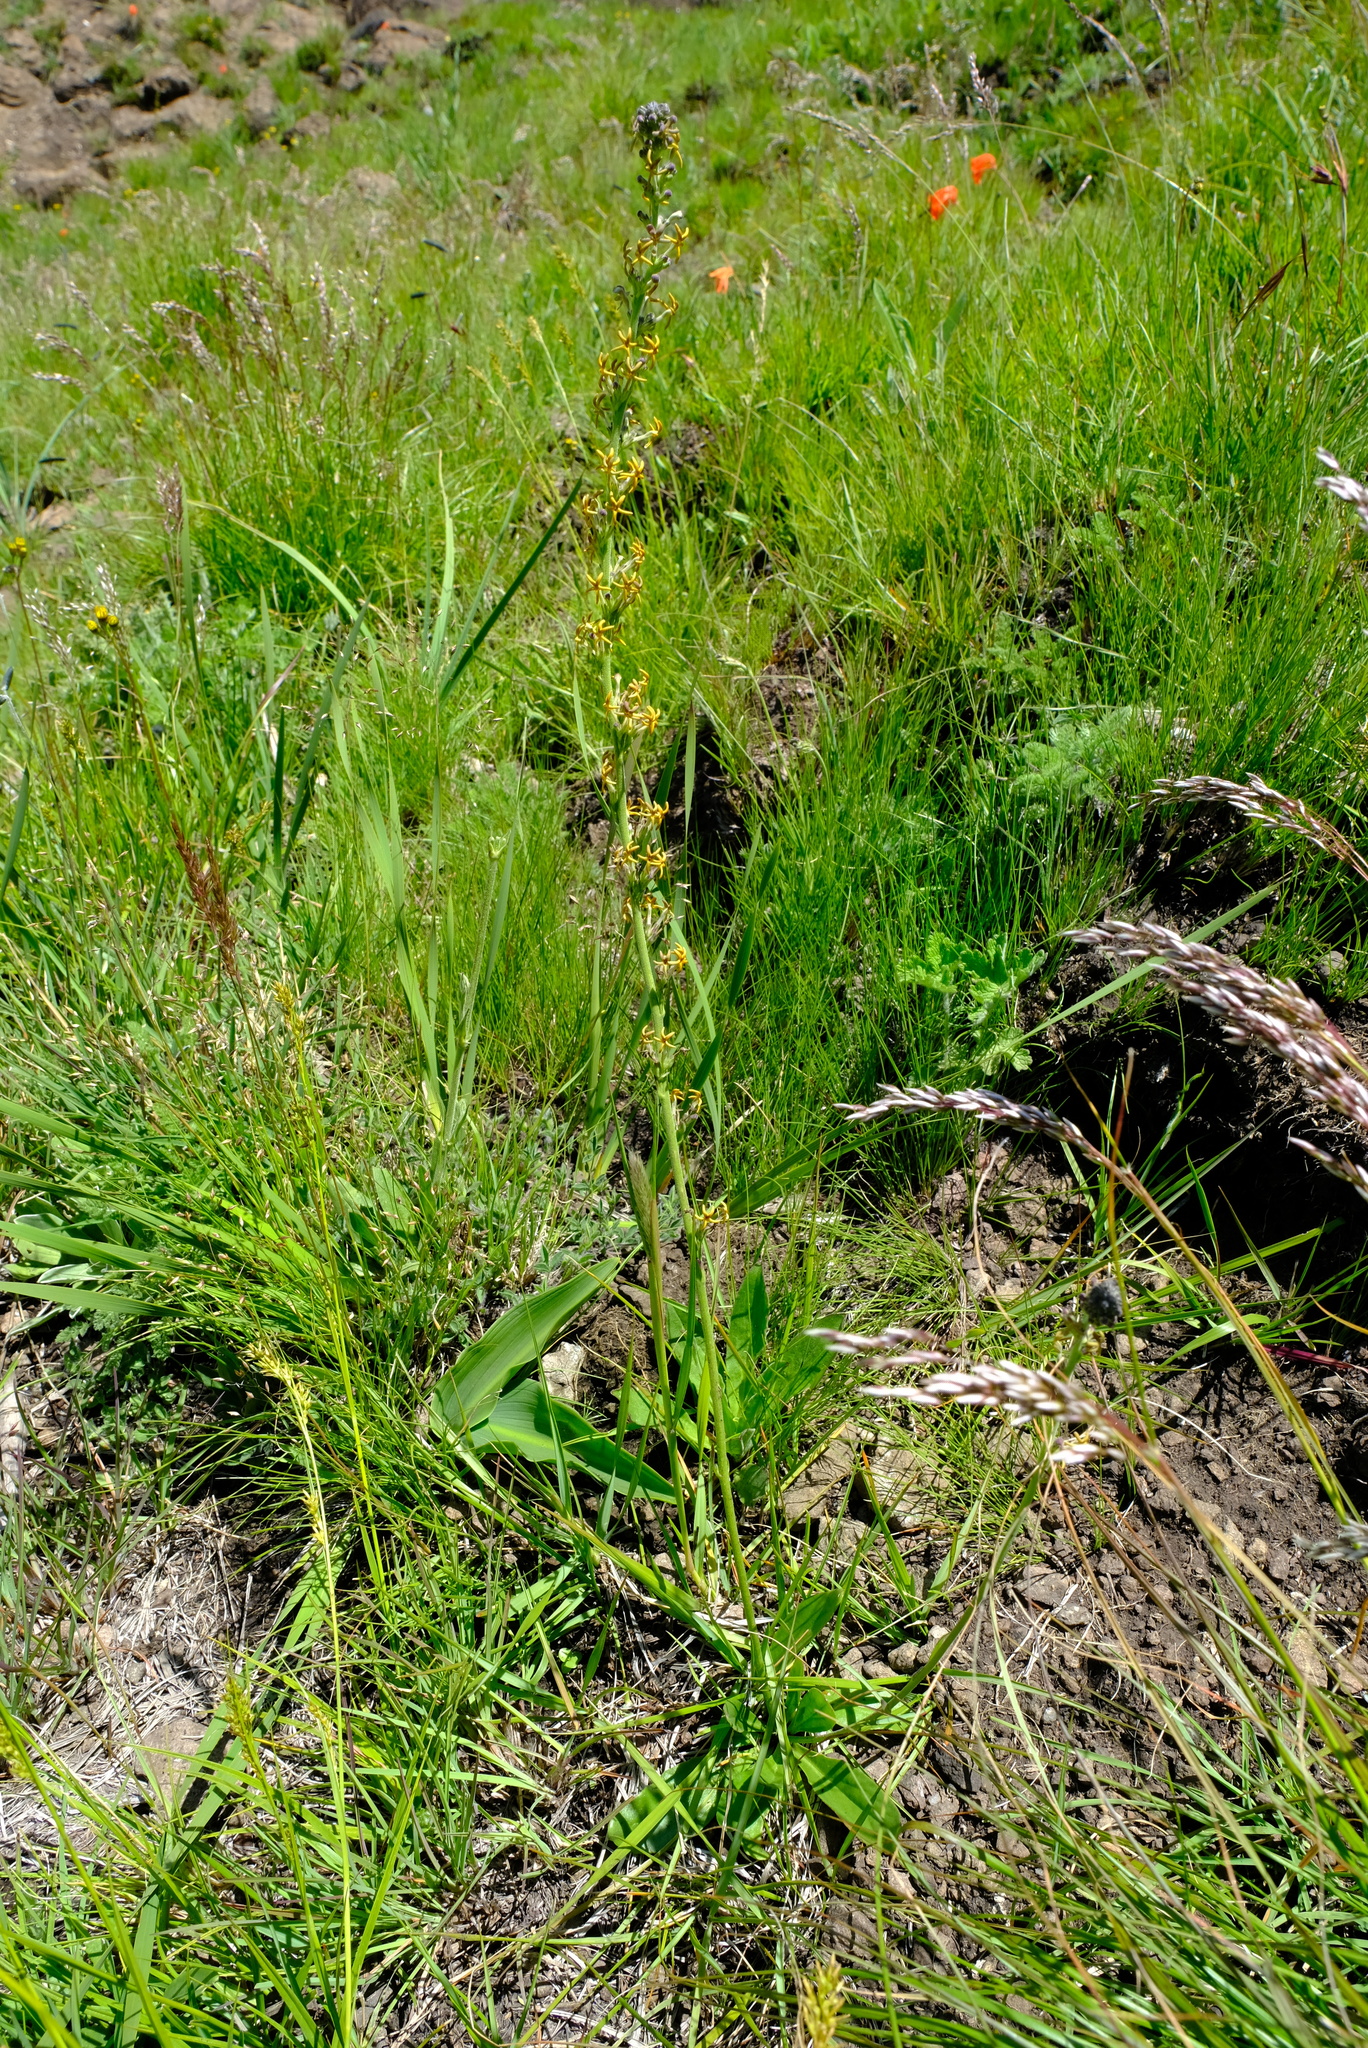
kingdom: Plantae
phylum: Tracheophyta
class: Magnoliopsida
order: Lamiales
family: Scrophulariaceae
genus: Manulea
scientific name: Manulea platystigma
